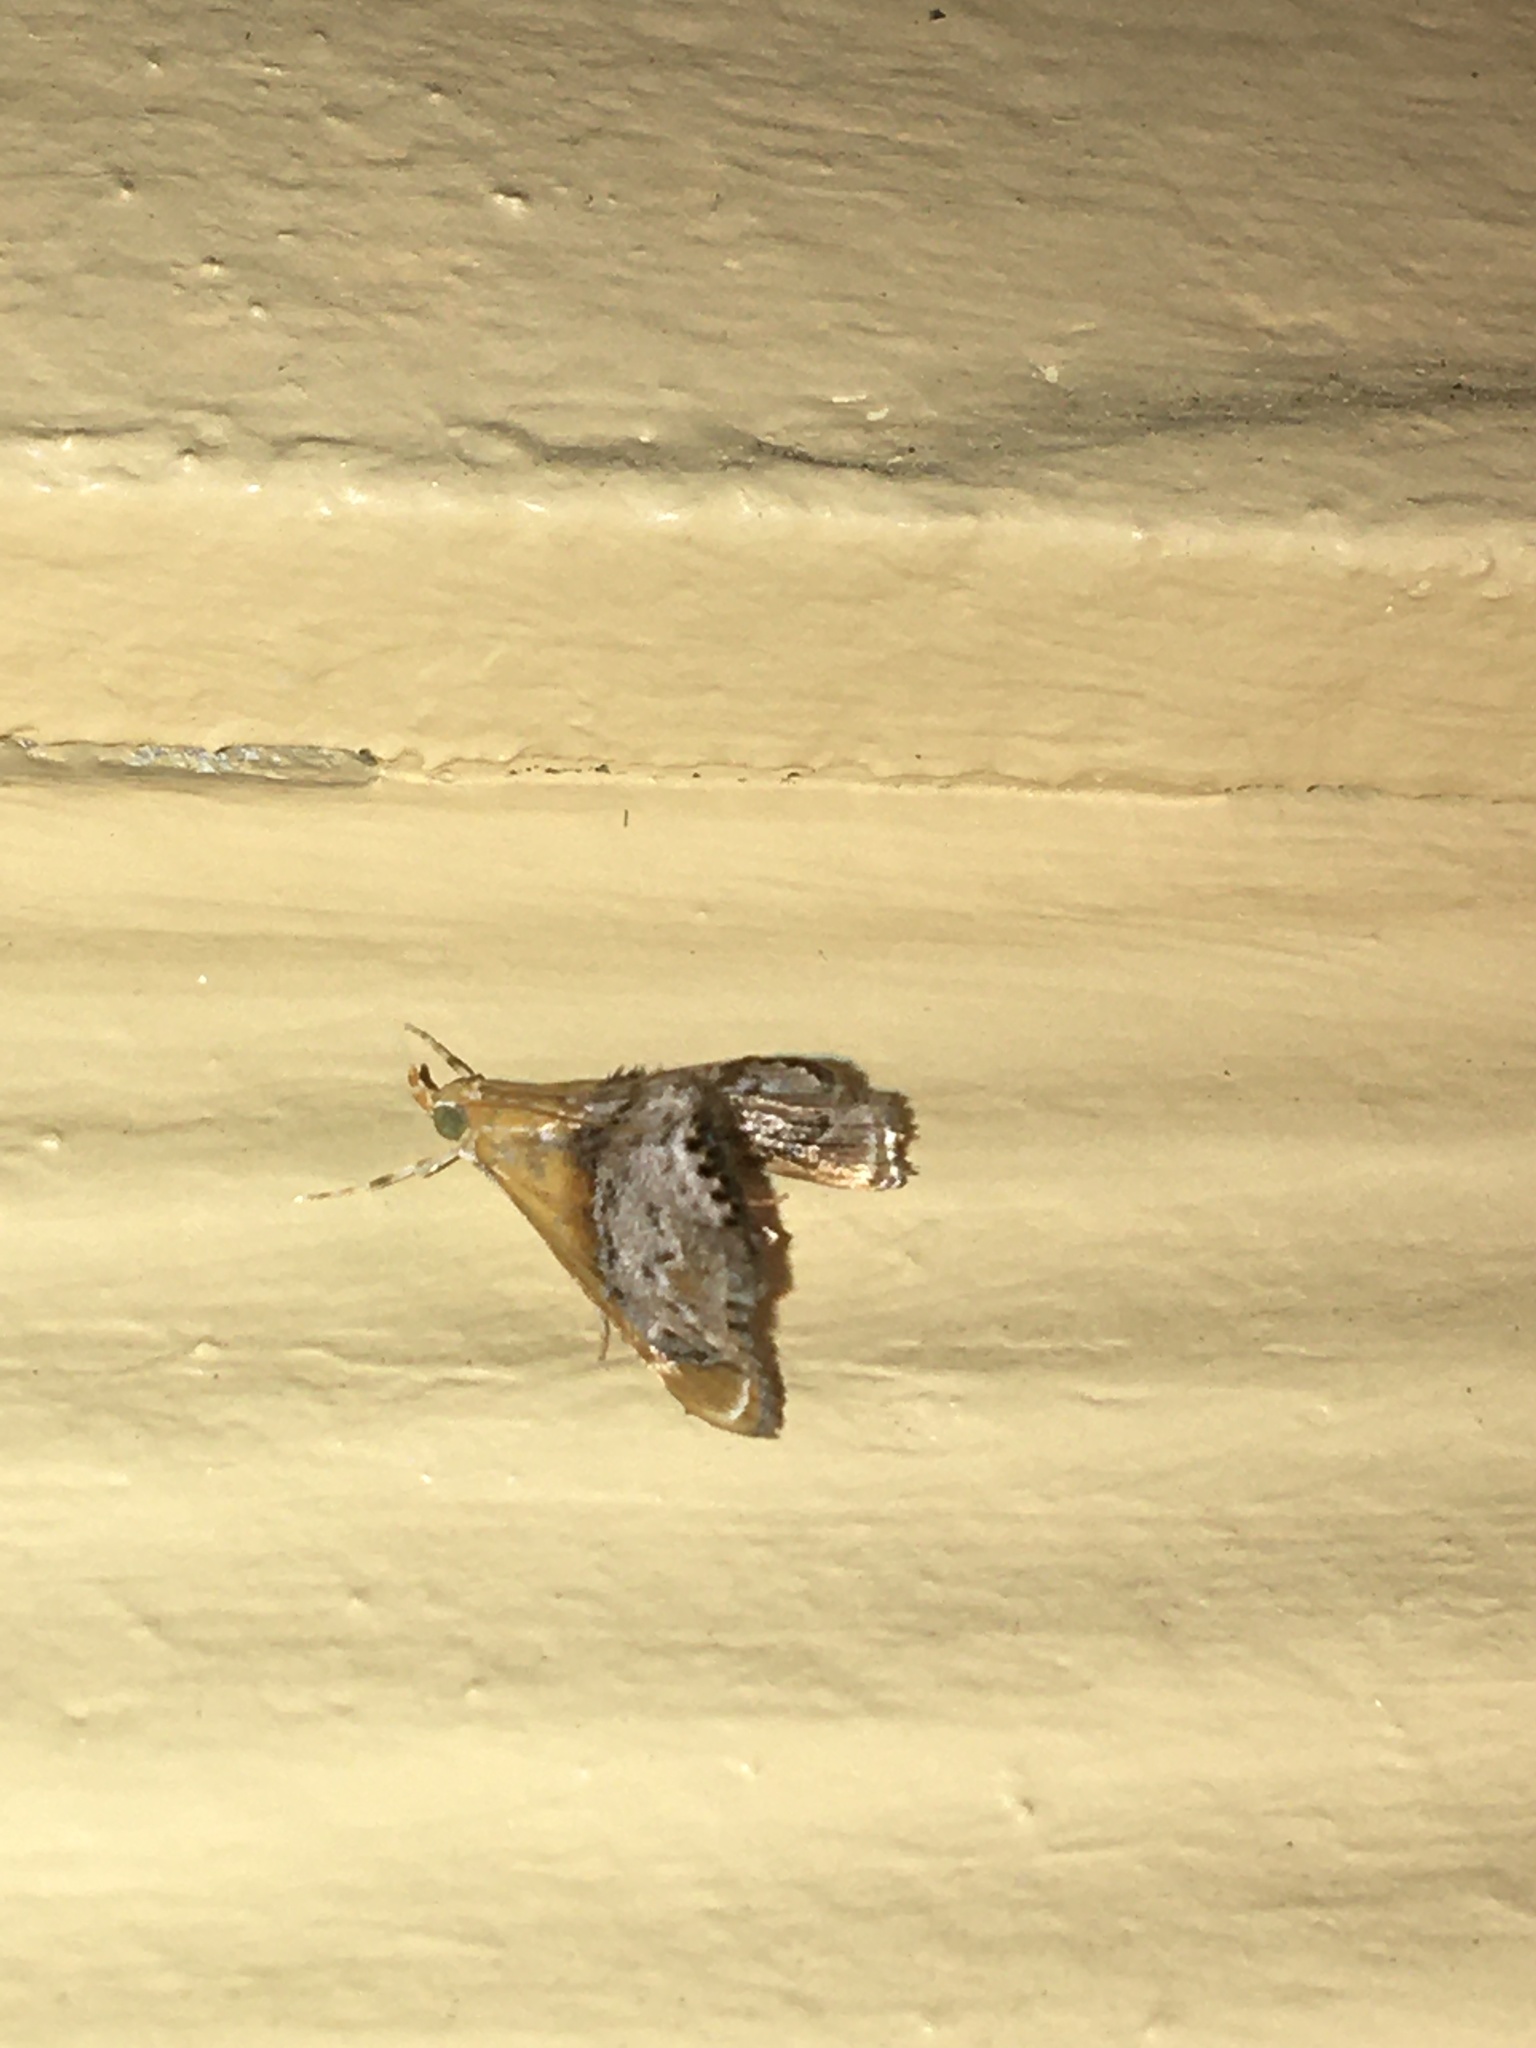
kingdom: Animalia
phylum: Arthropoda
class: Insecta
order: Lepidoptera
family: Crambidae
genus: Chalcoela
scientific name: Chalcoela iphitalis
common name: Sooty-winged chalcoela moth
